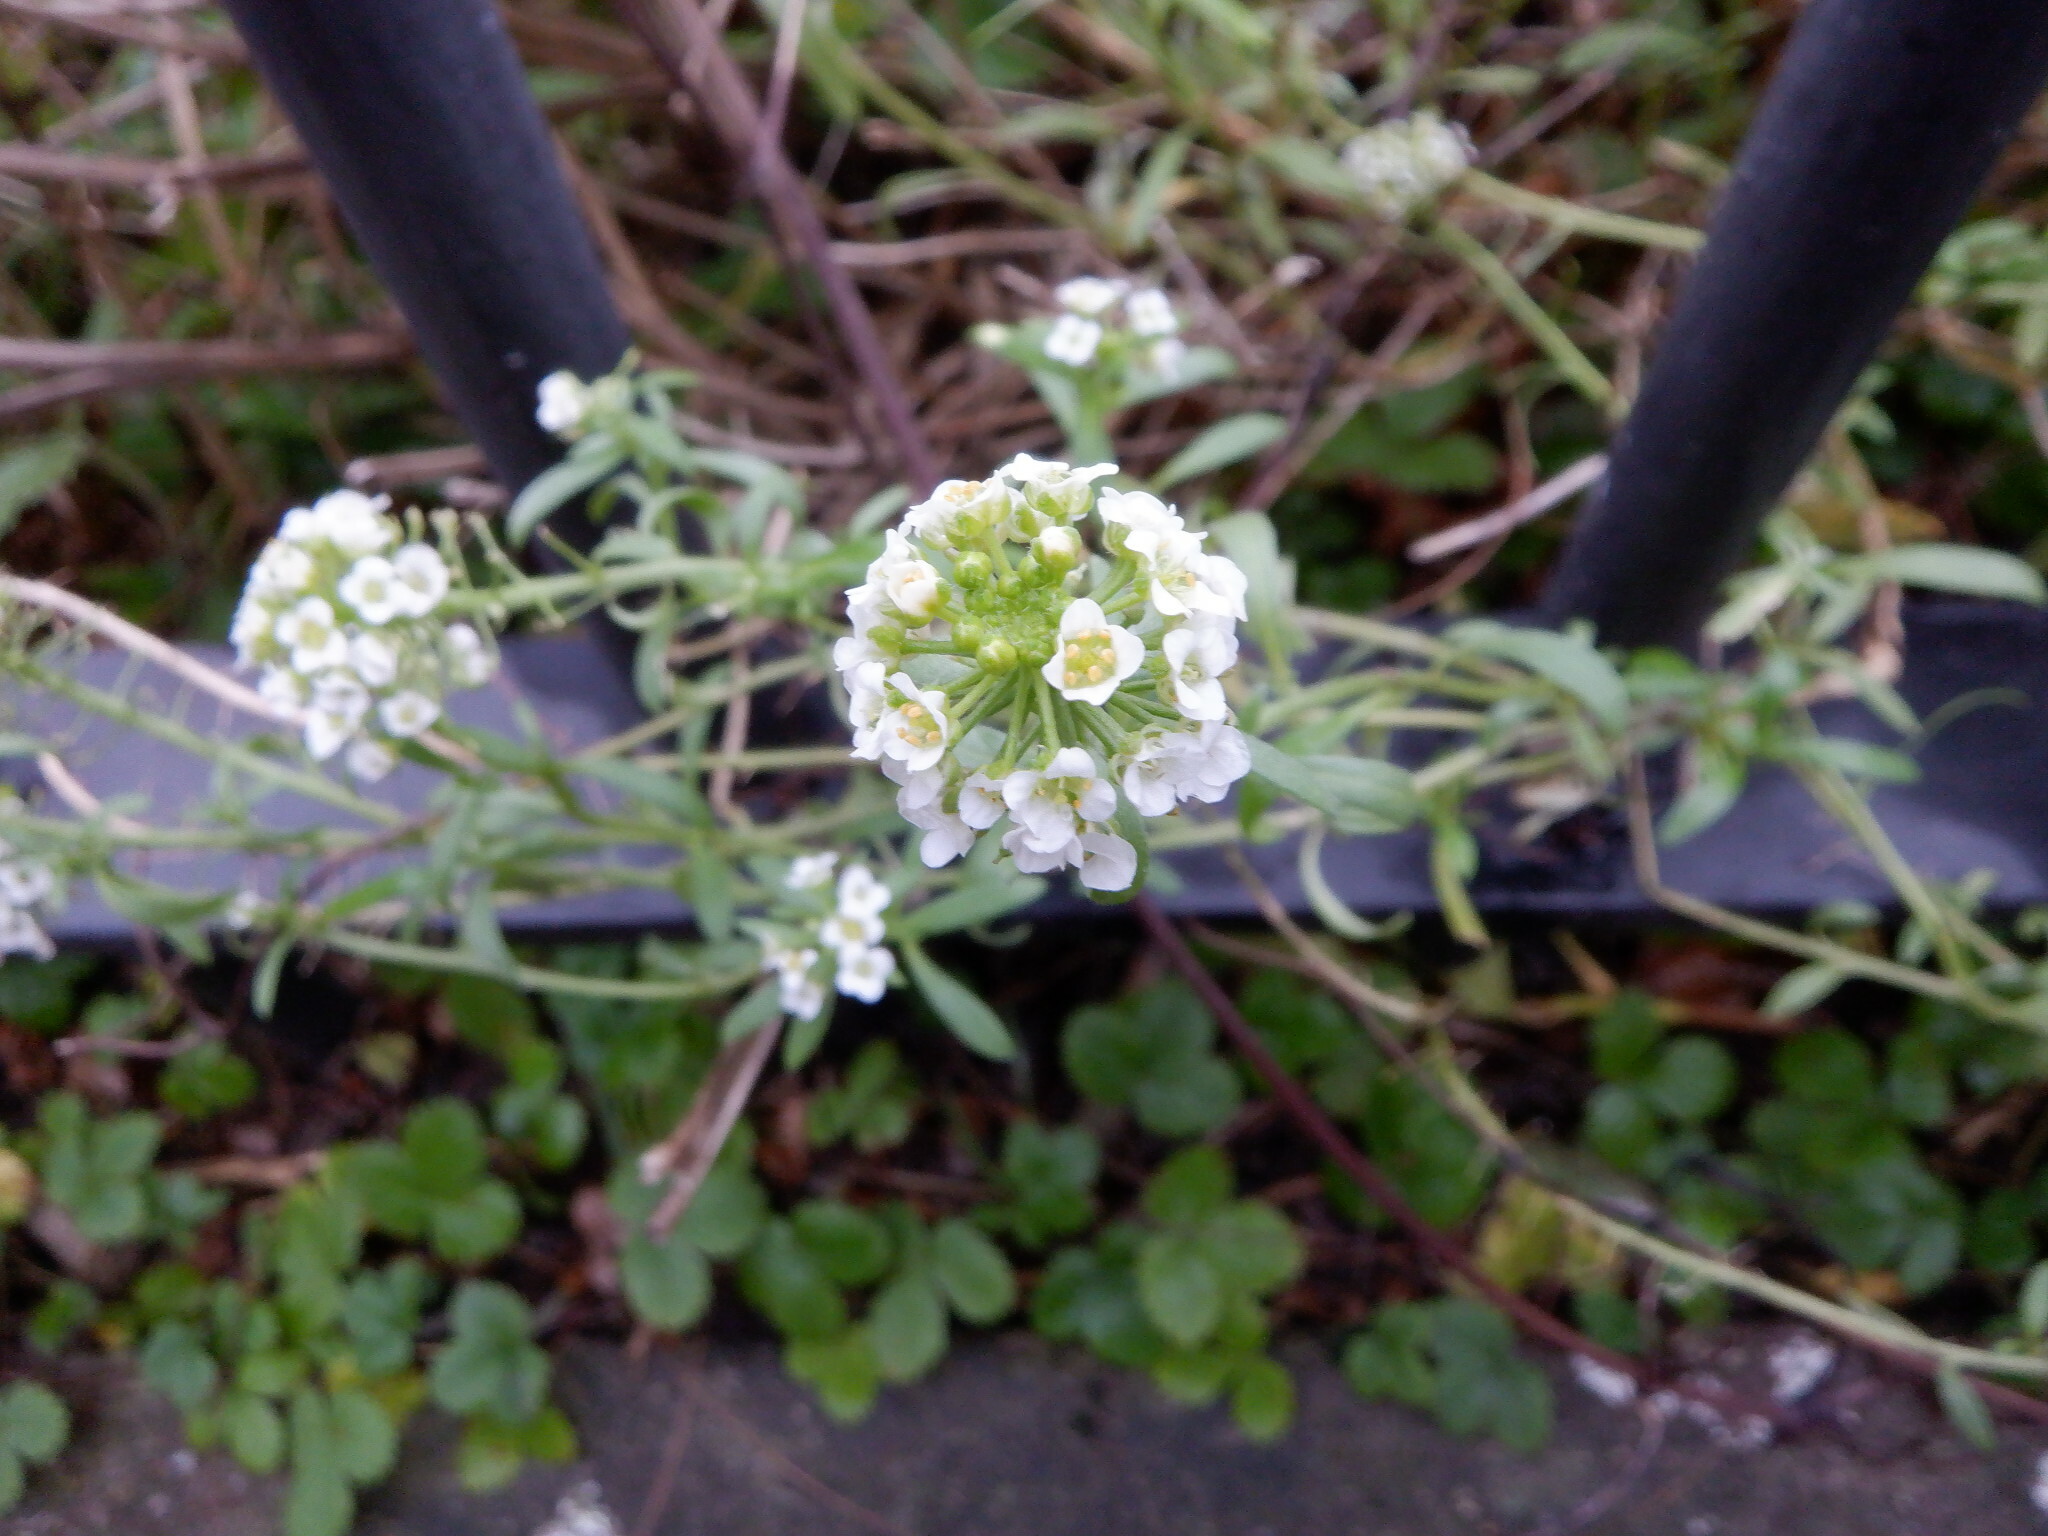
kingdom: Plantae
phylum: Tracheophyta
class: Magnoliopsida
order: Brassicales
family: Brassicaceae
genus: Lobularia
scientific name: Lobularia maritima
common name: Sweet alison
